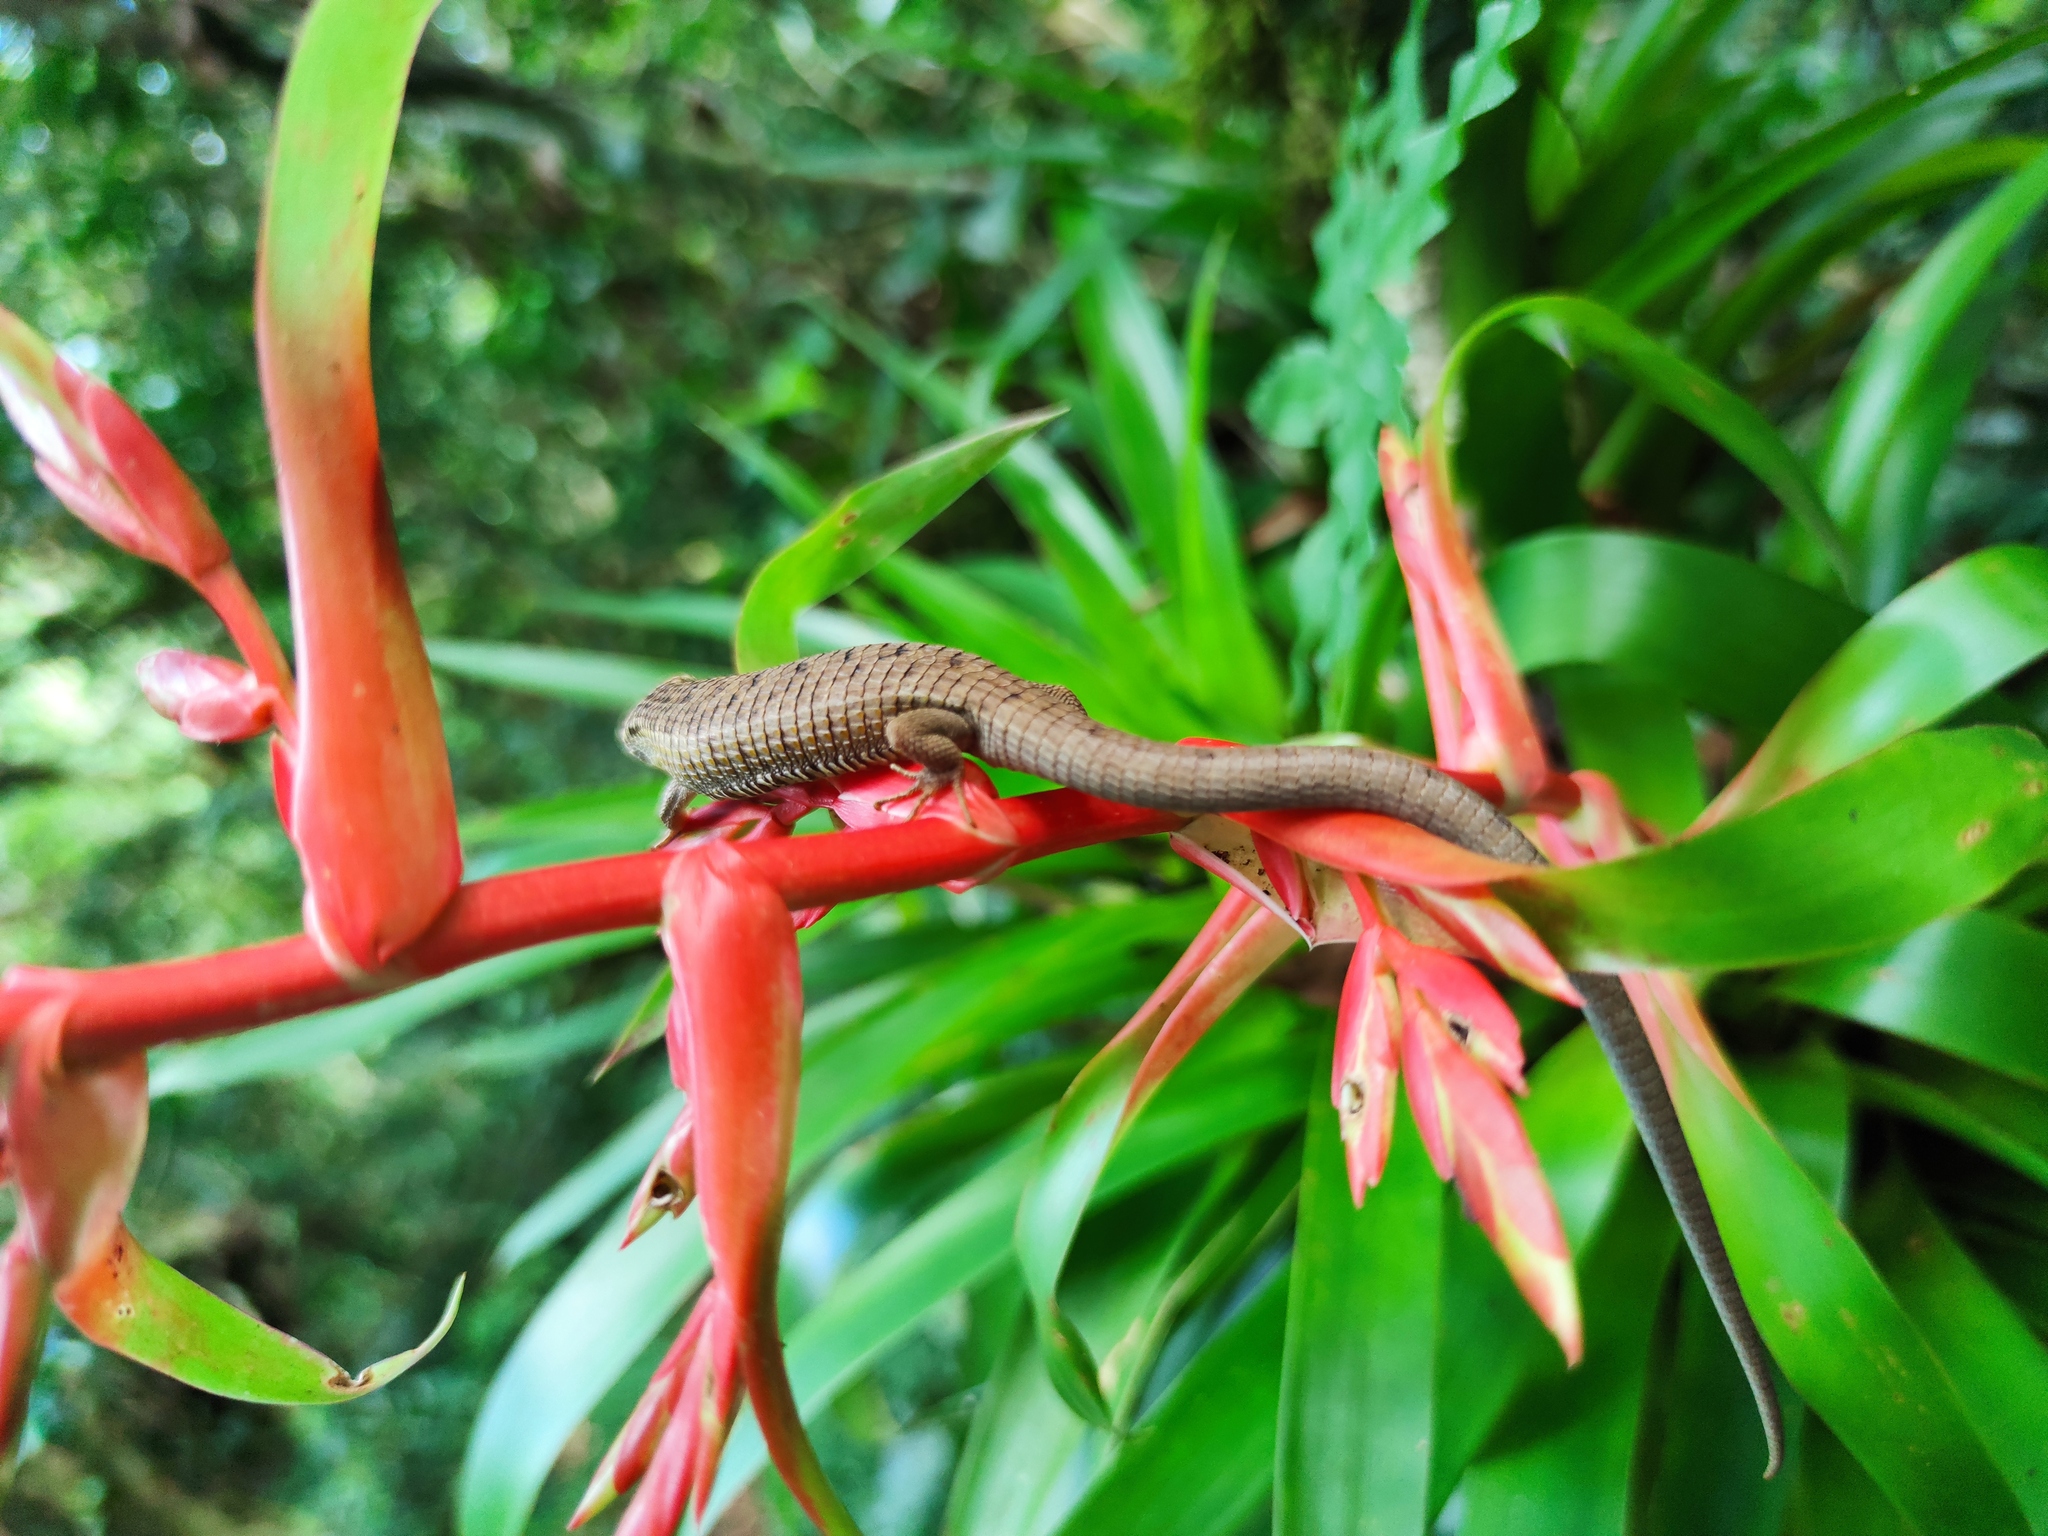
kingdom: Animalia
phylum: Chordata
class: Squamata
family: Anguidae
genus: Abronia
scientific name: Abronia morenica
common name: Sierra morena arboreal alligator lizards
